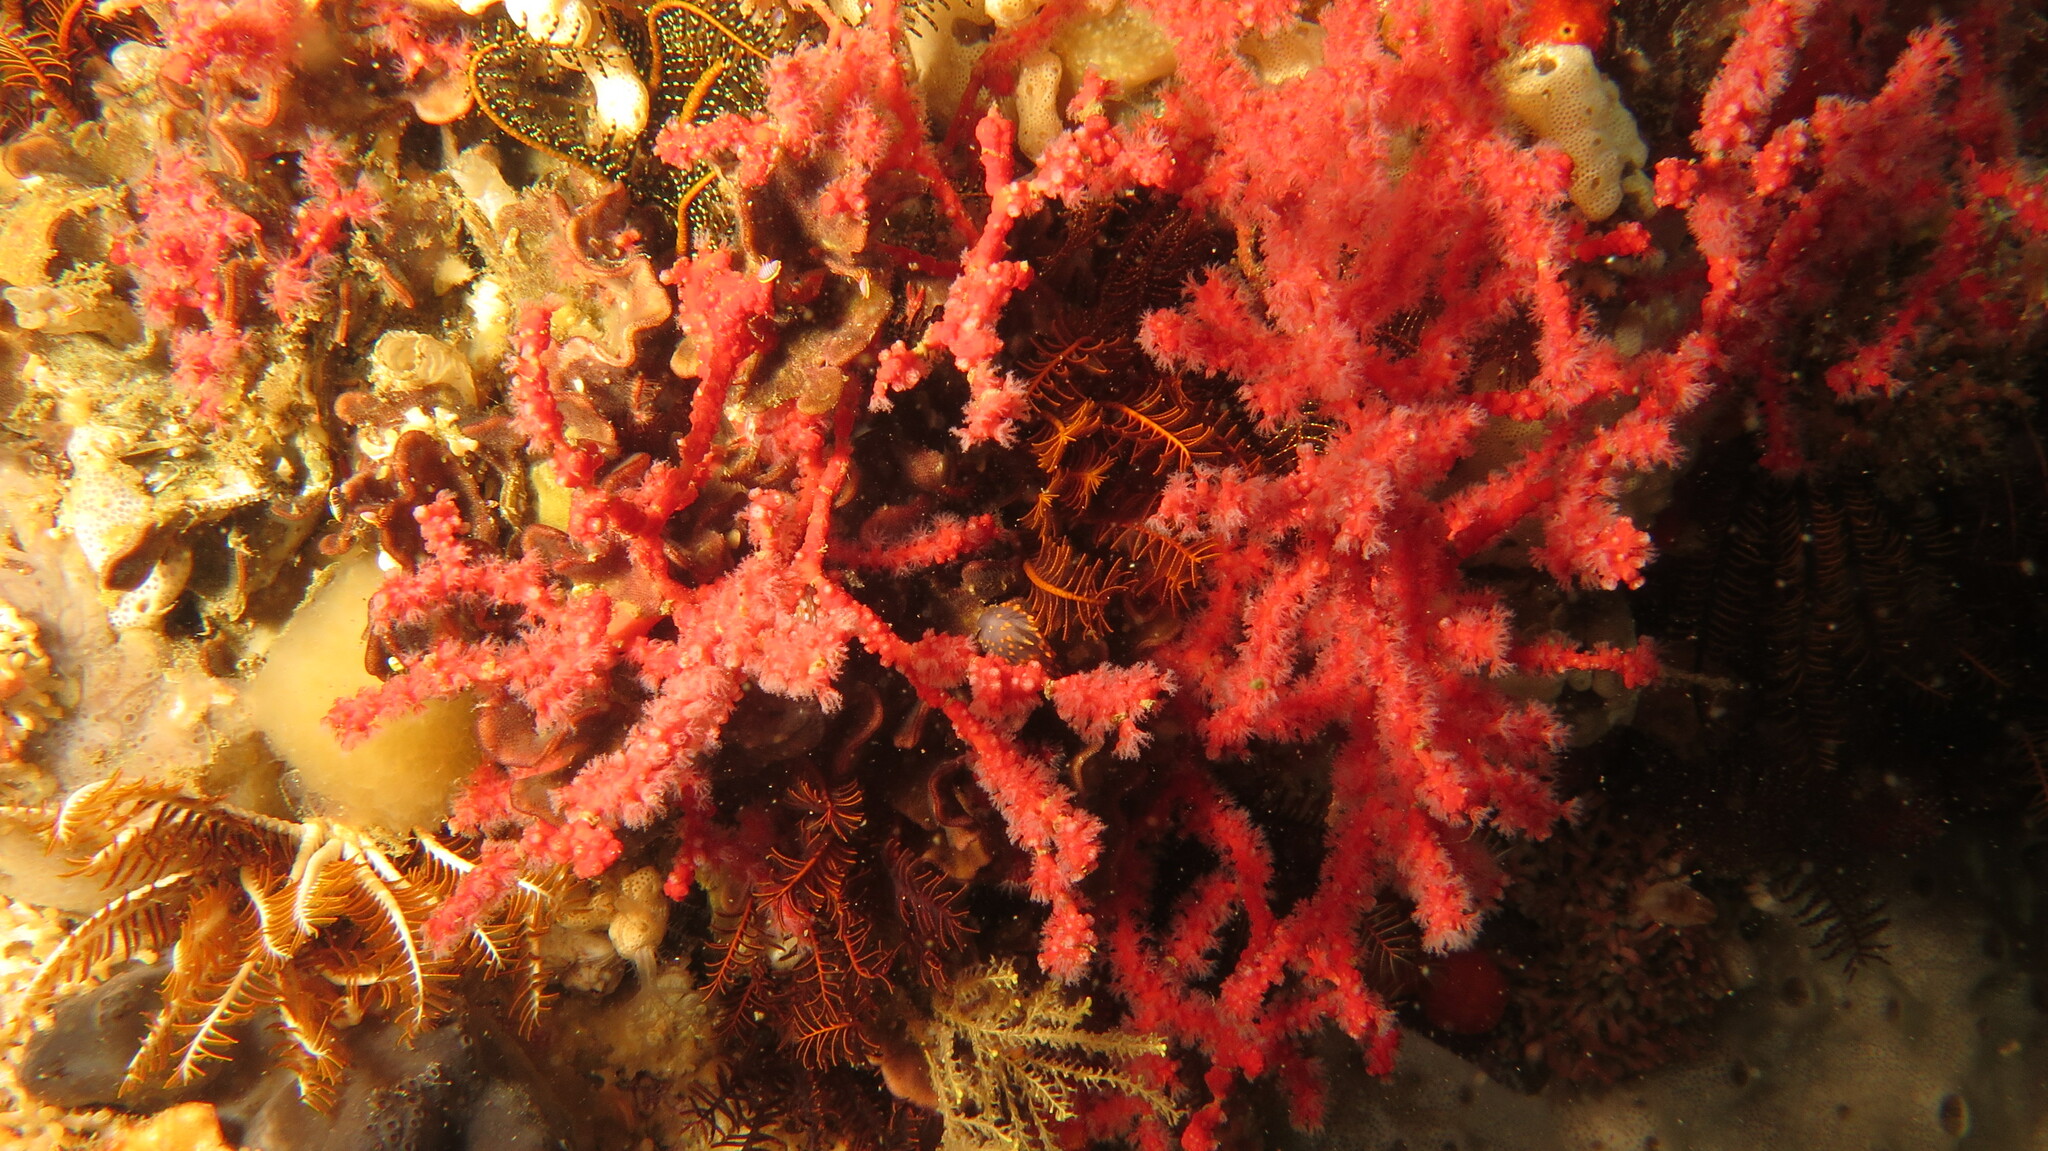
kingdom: Animalia
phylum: Cnidaria
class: Anthozoa
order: Malacalcyonacea
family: Melithaeidae
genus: Melithaea
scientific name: Melithaea rubra
